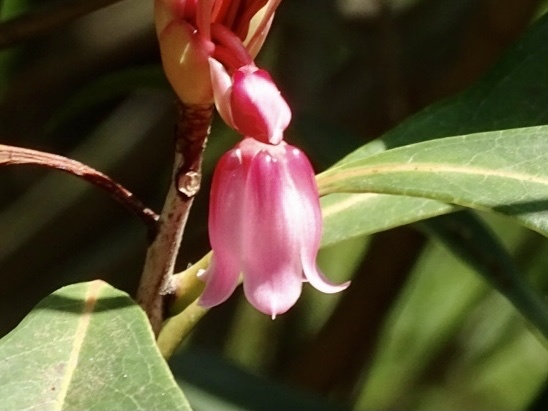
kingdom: Plantae
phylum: Tracheophyta
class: Magnoliopsida
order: Ericales
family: Ericaceae
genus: Enkianthus
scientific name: Enkianthus quinqueflorus
